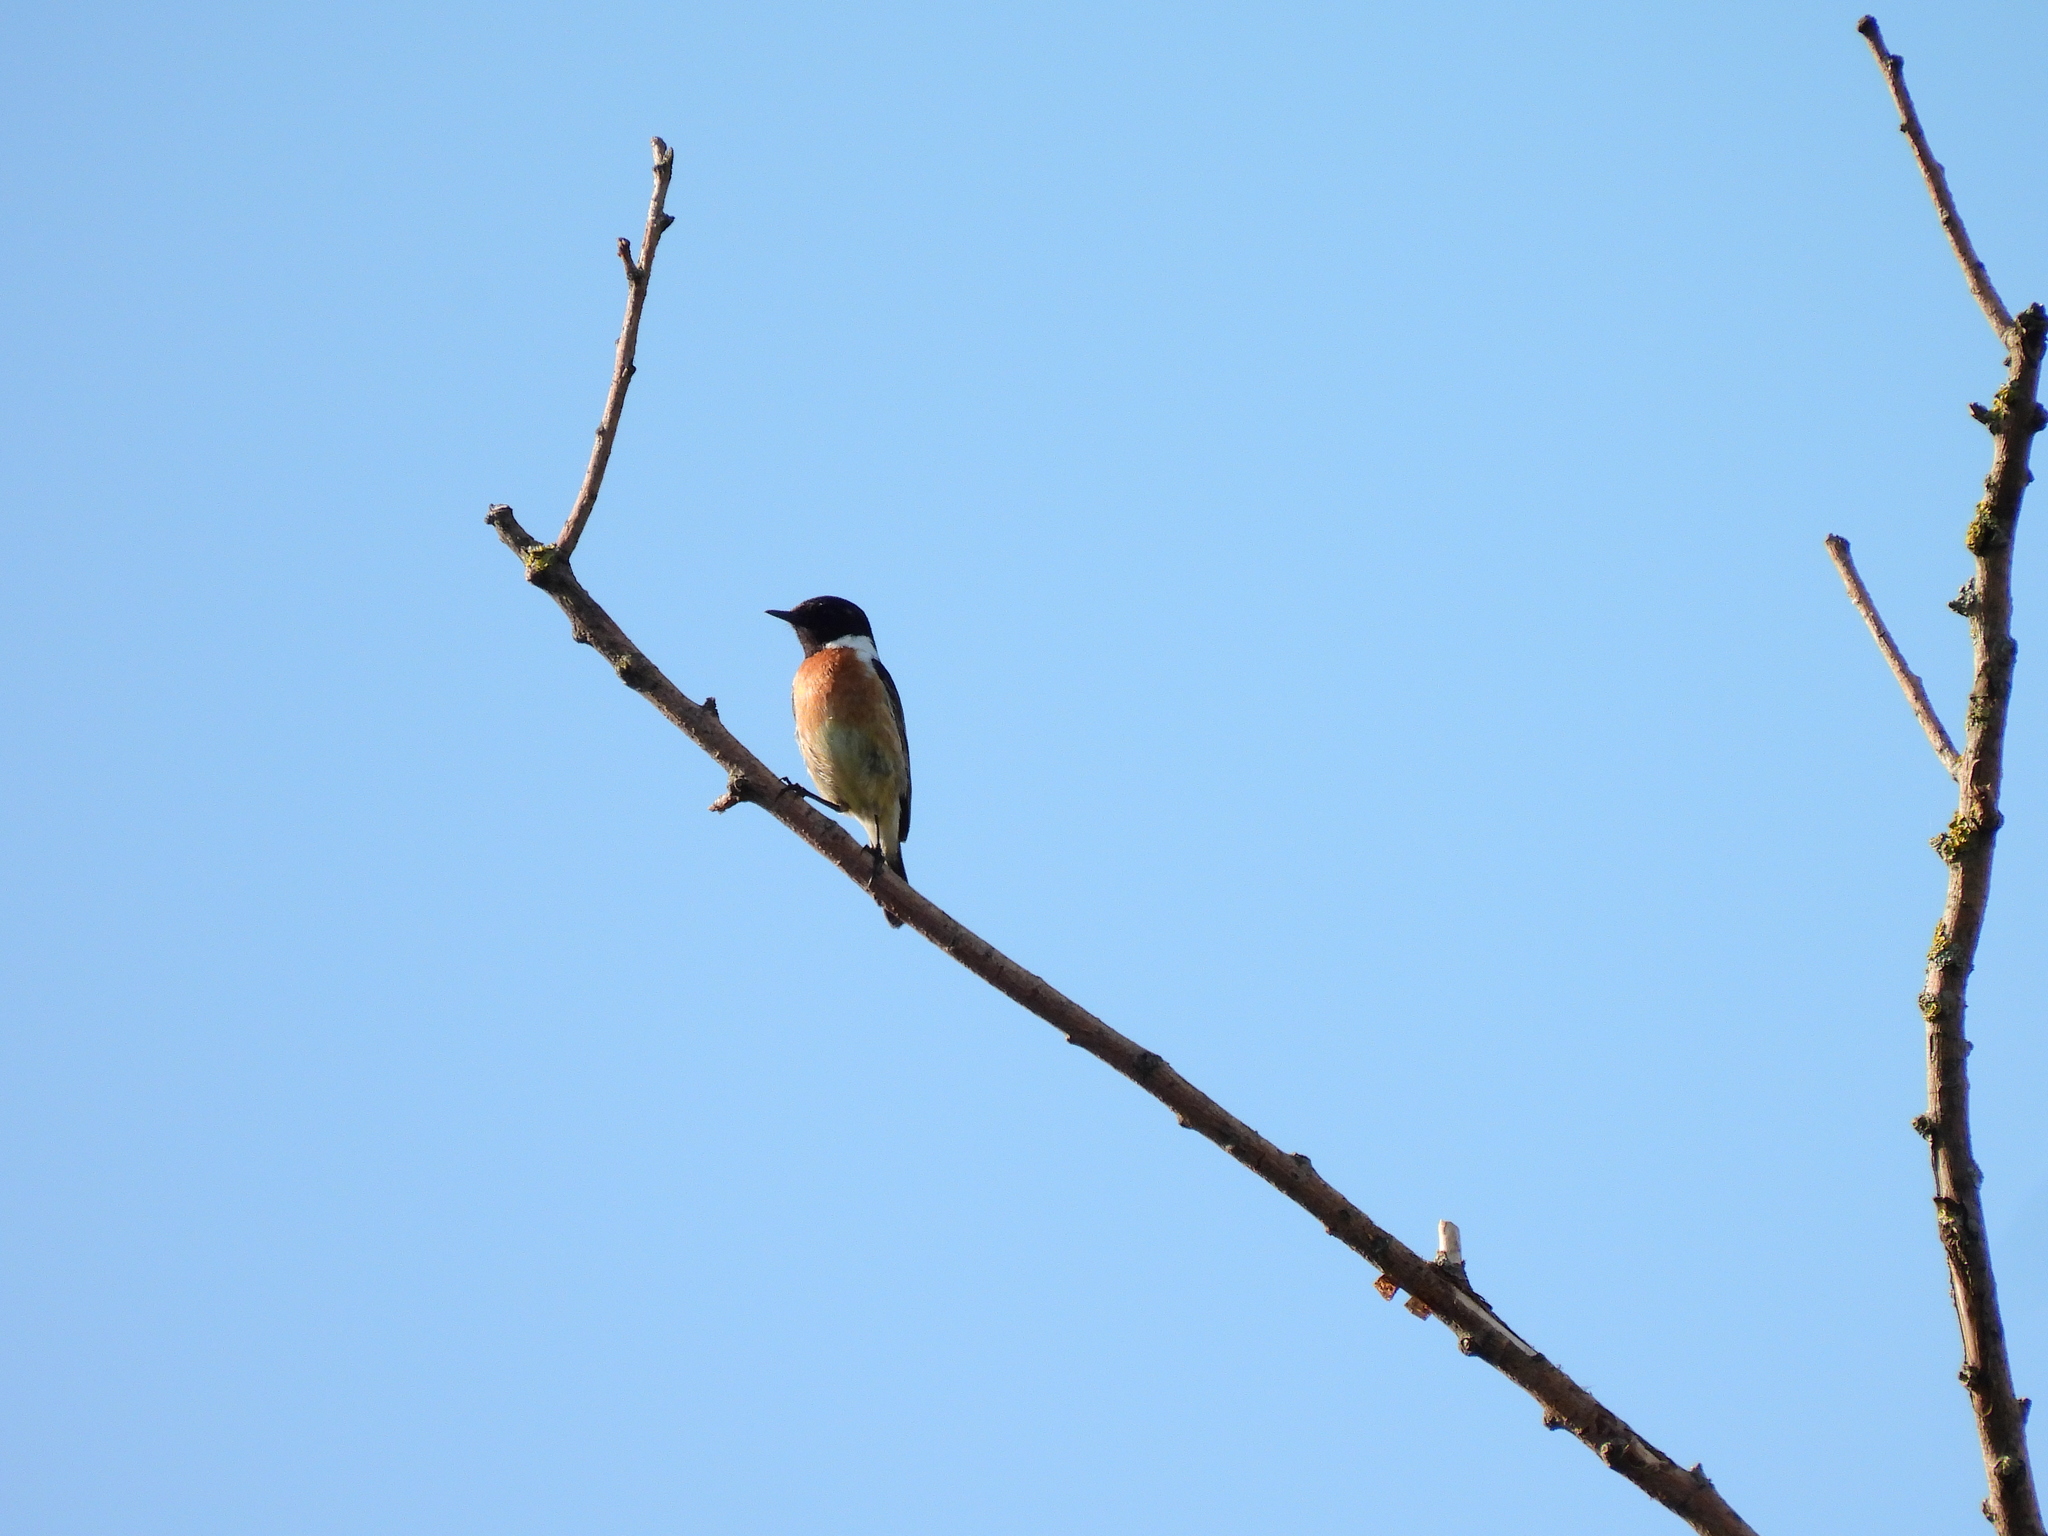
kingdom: Animalia
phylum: Chordata
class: Aves
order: Passeriformes
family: Muscicapidae
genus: Saxicola
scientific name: Saxicola rubicola
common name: European stonechat
